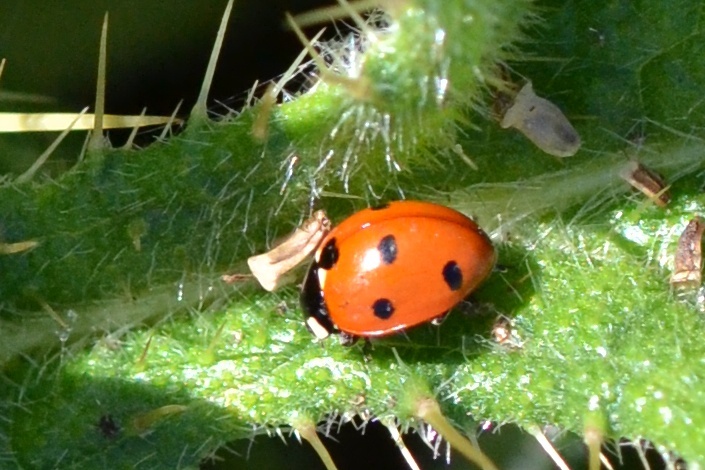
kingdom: Animalia
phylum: Arthropoda
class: Insecta
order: Coleoptera
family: Coccinellidae
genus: Coccinella
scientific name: Coccinella septempunctata
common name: Sevenspotted lady beetle
